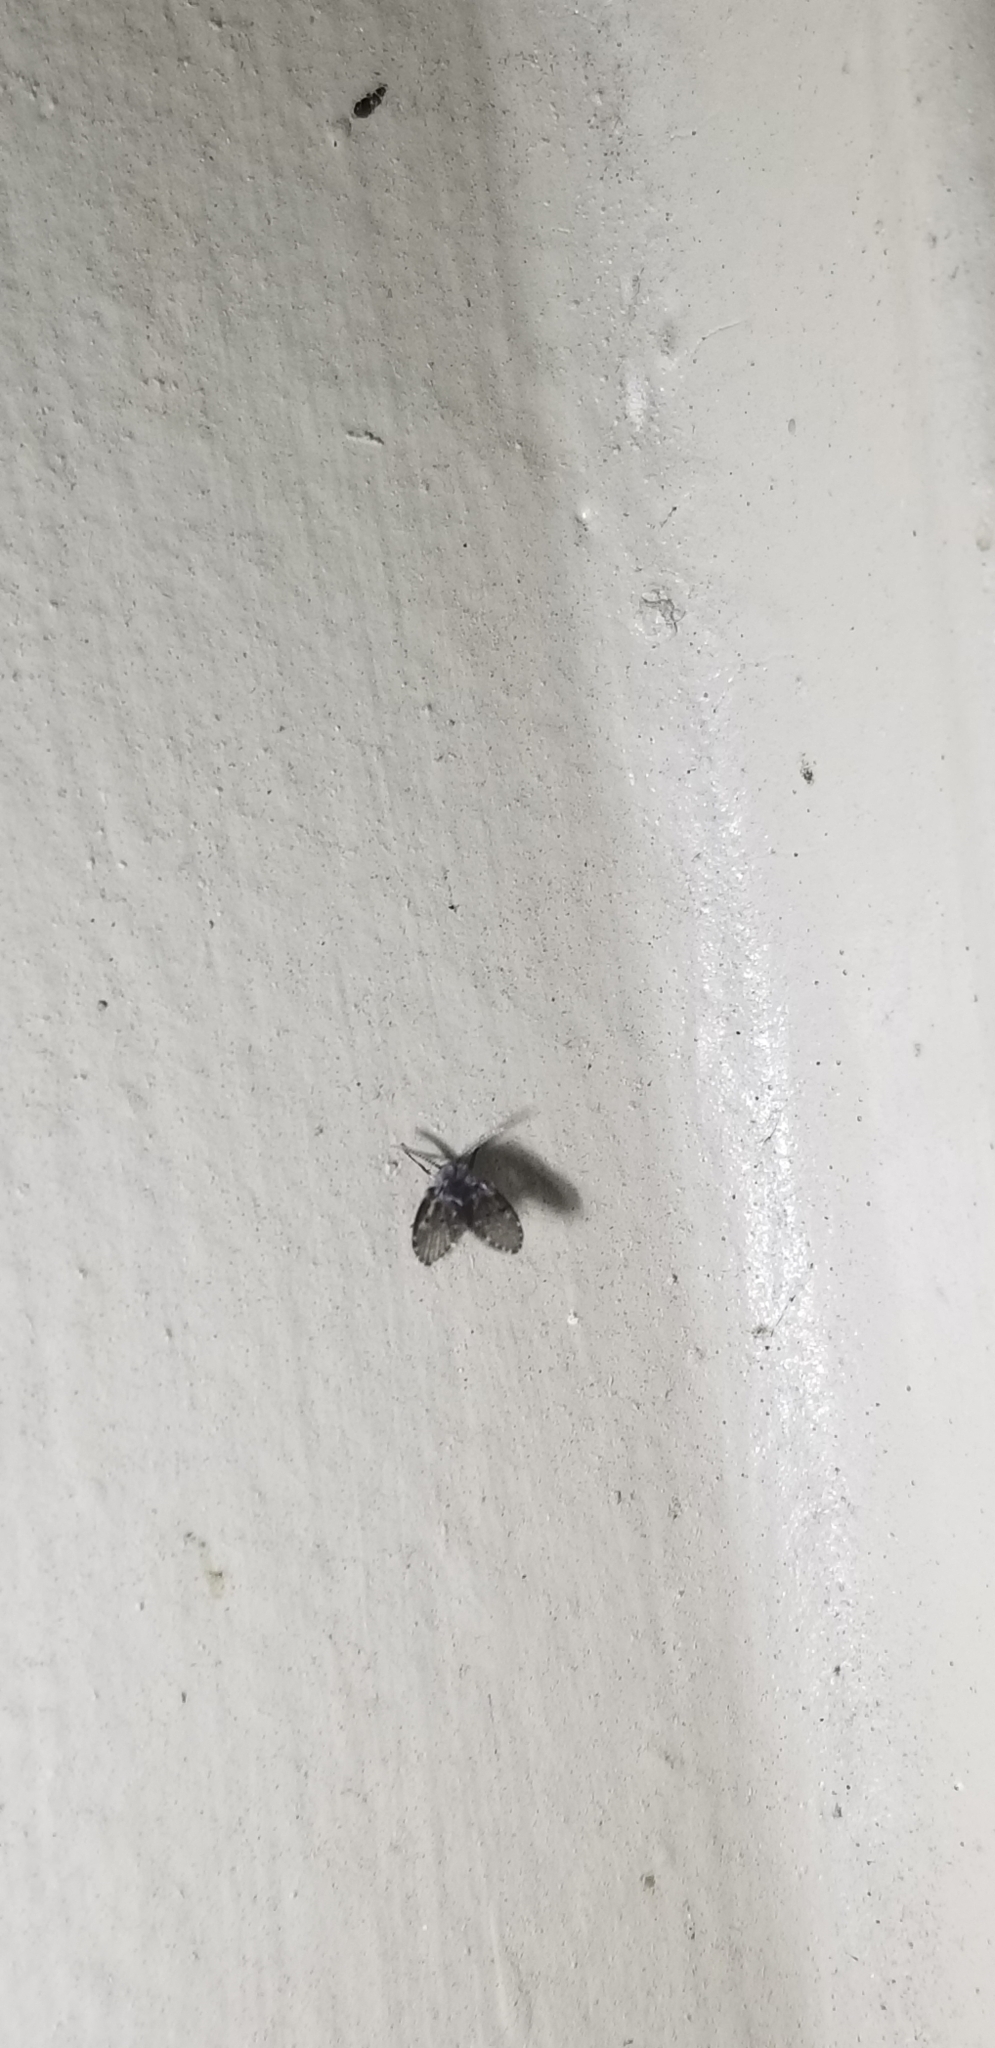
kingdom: Animalia
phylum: Arthropoda
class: Insecta
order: Diptera
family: Psychodidae
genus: Clogmia
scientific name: Clogmia albipunctatus
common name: White-spotted moth fly
